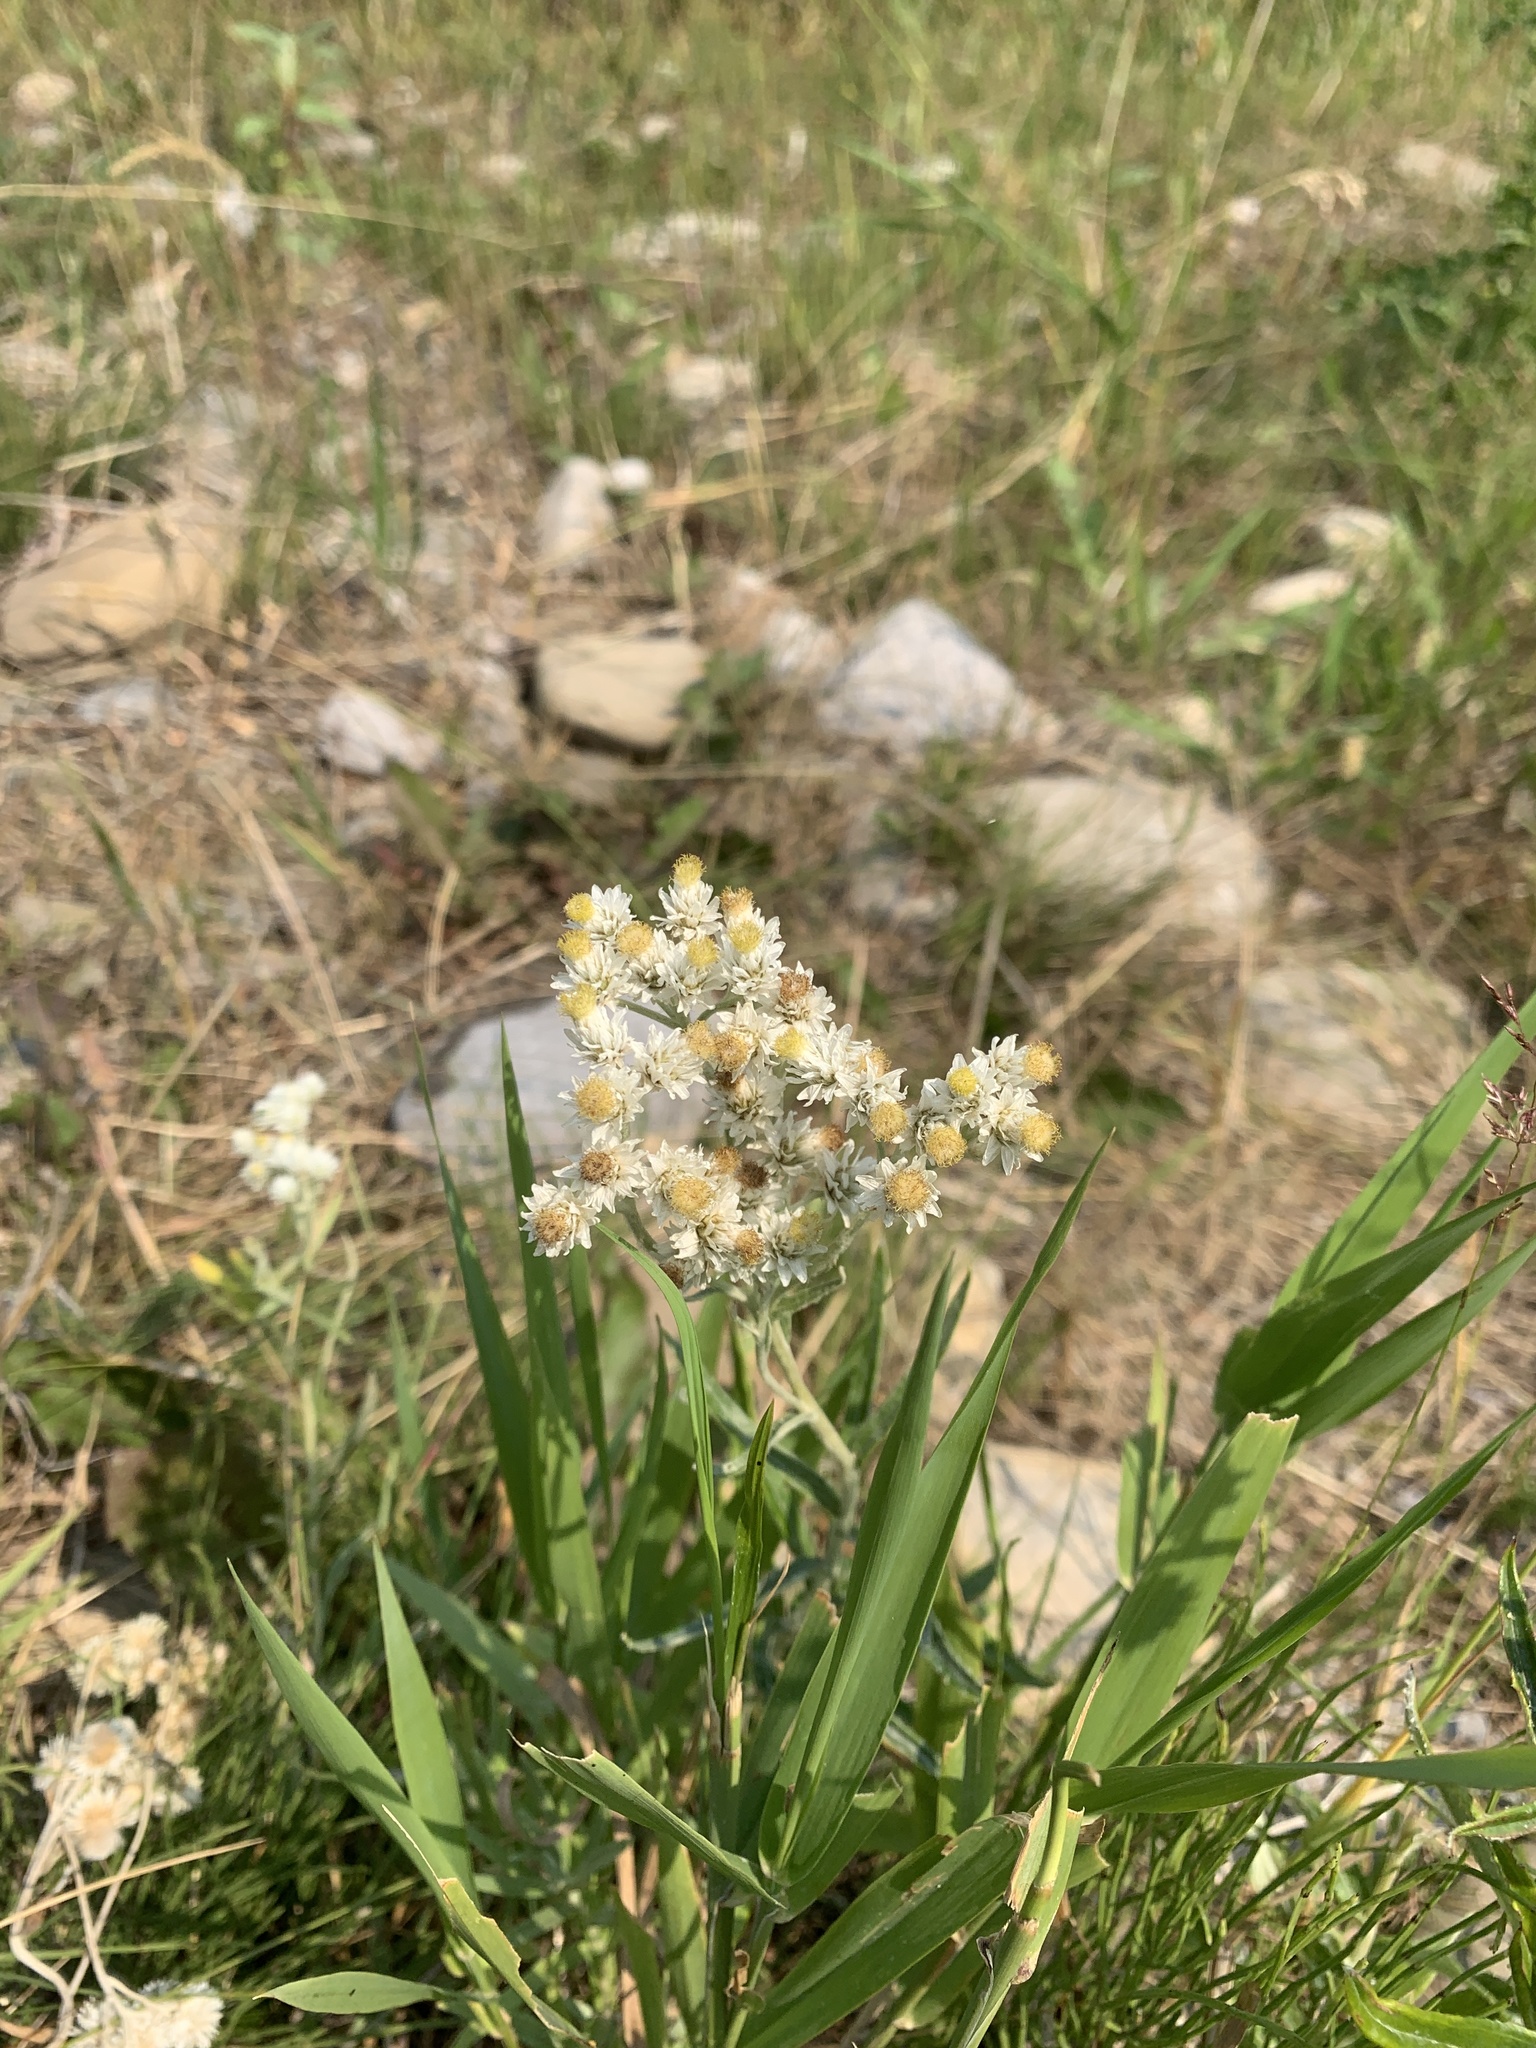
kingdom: Plantae
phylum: Tracheophyta
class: Magnoliopsida
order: Asterales
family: Asteraceae
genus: Anaphalis
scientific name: Anaphalis margaritacea
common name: Pearly everlasting
